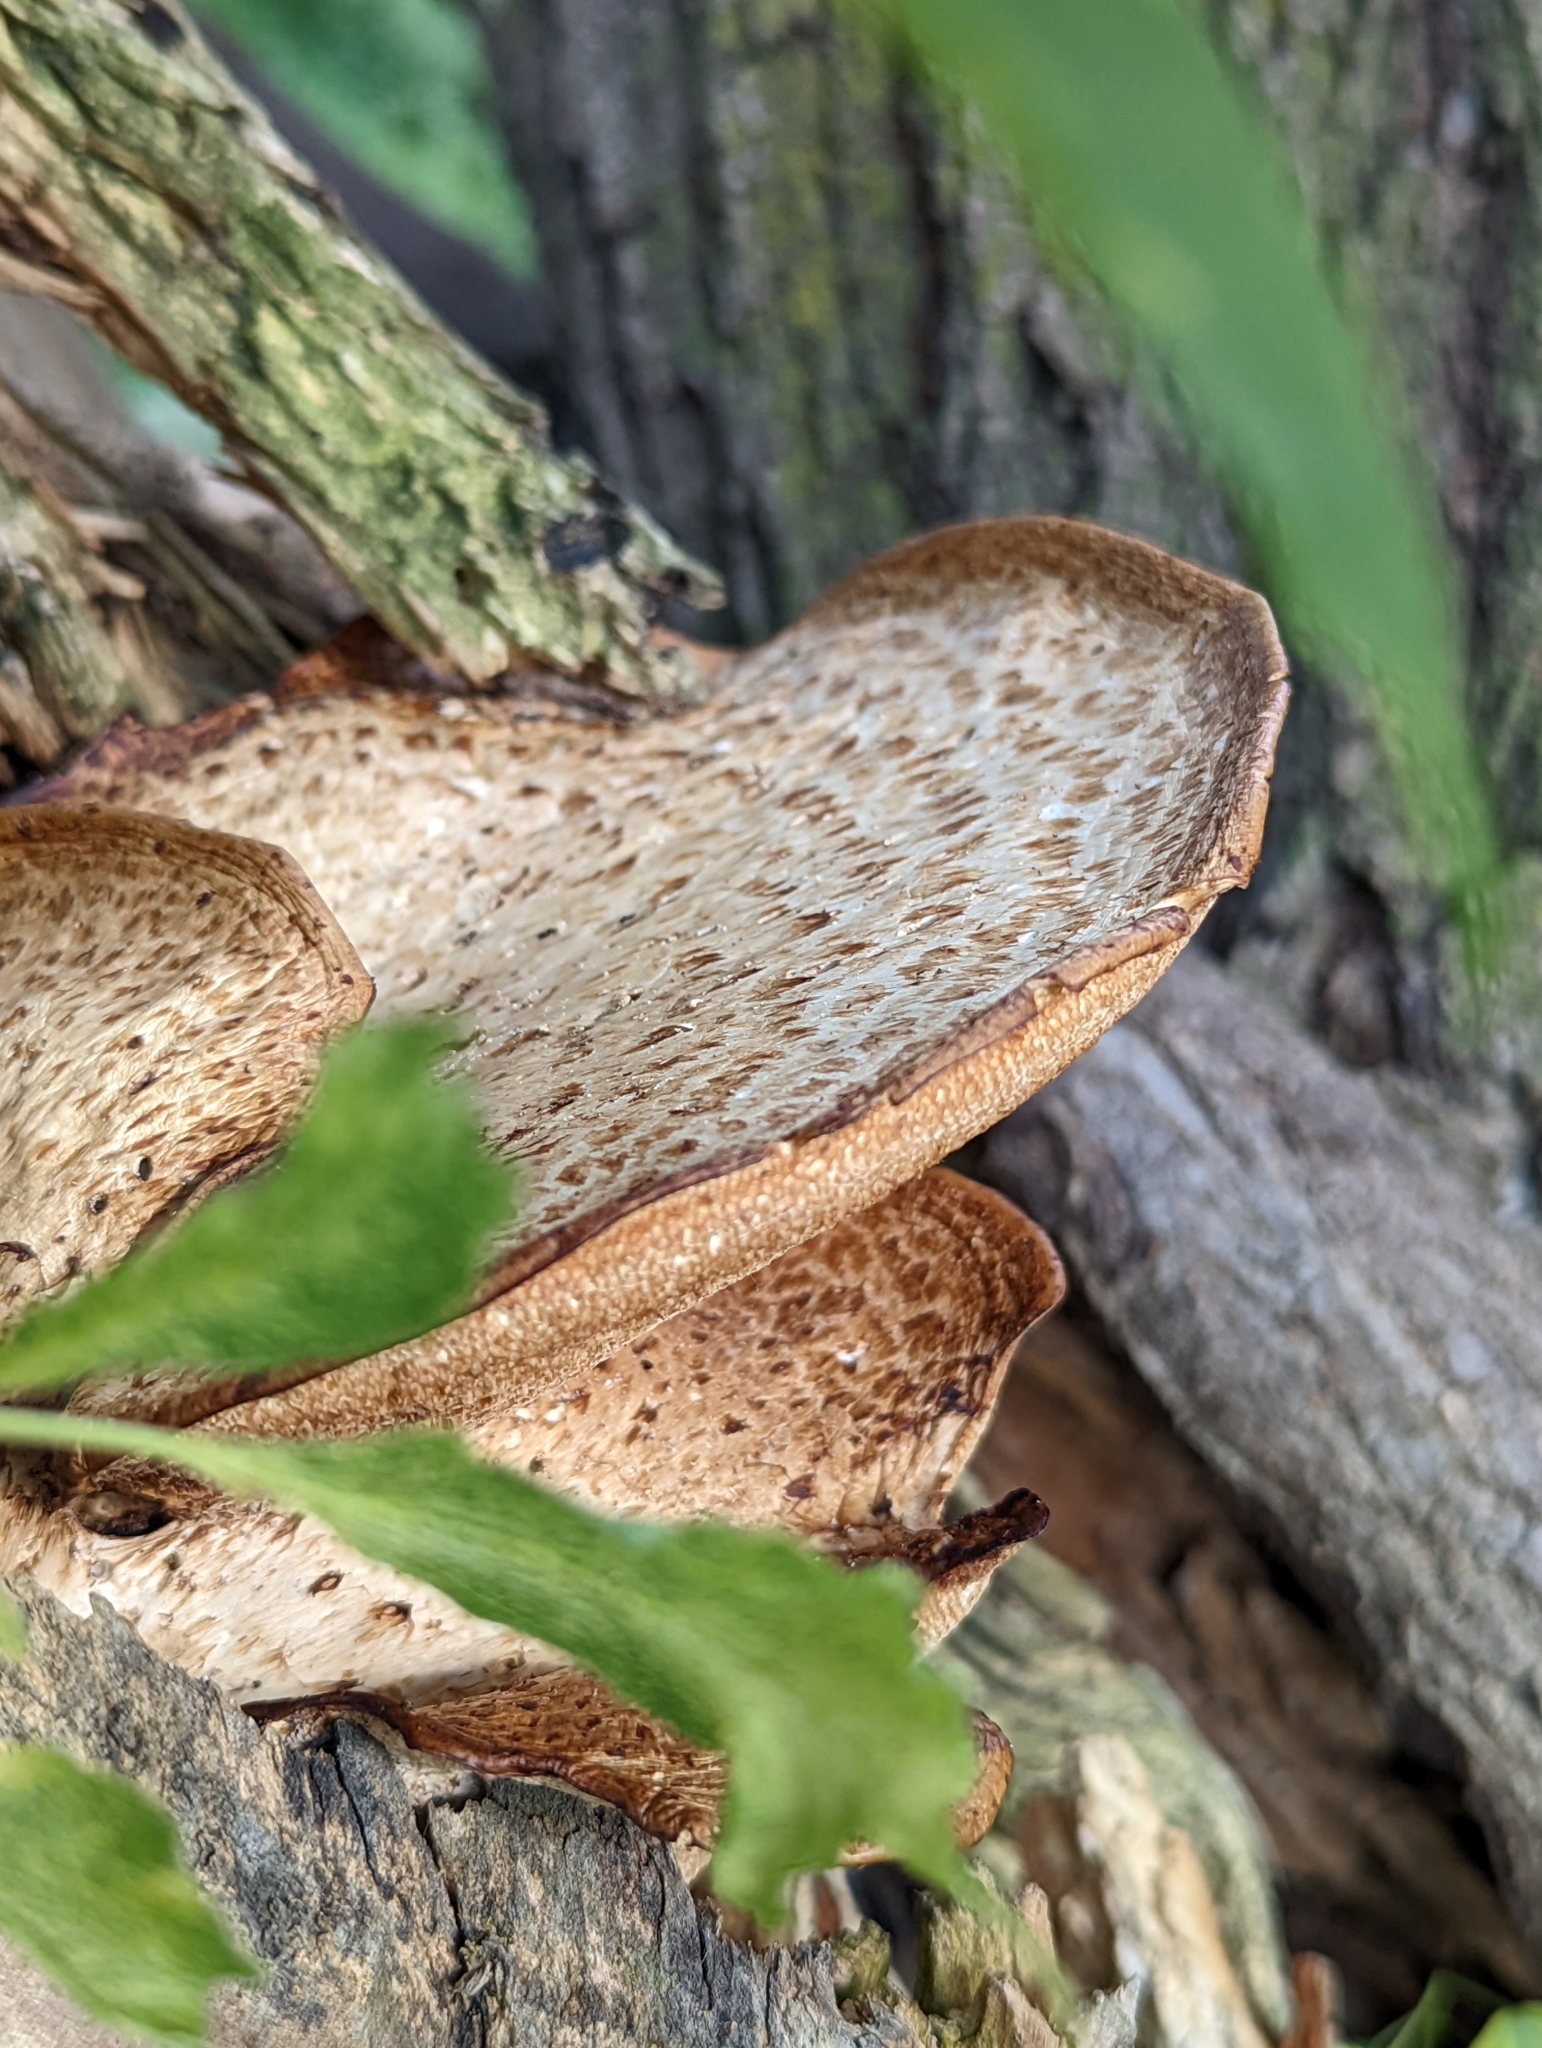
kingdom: Fungi
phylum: Basidiomycota
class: Agaricomycetes
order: Polyporales
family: Polyporaceae
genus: Cerioporus
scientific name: Cerioporus squamosus
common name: Dryad's saddle
